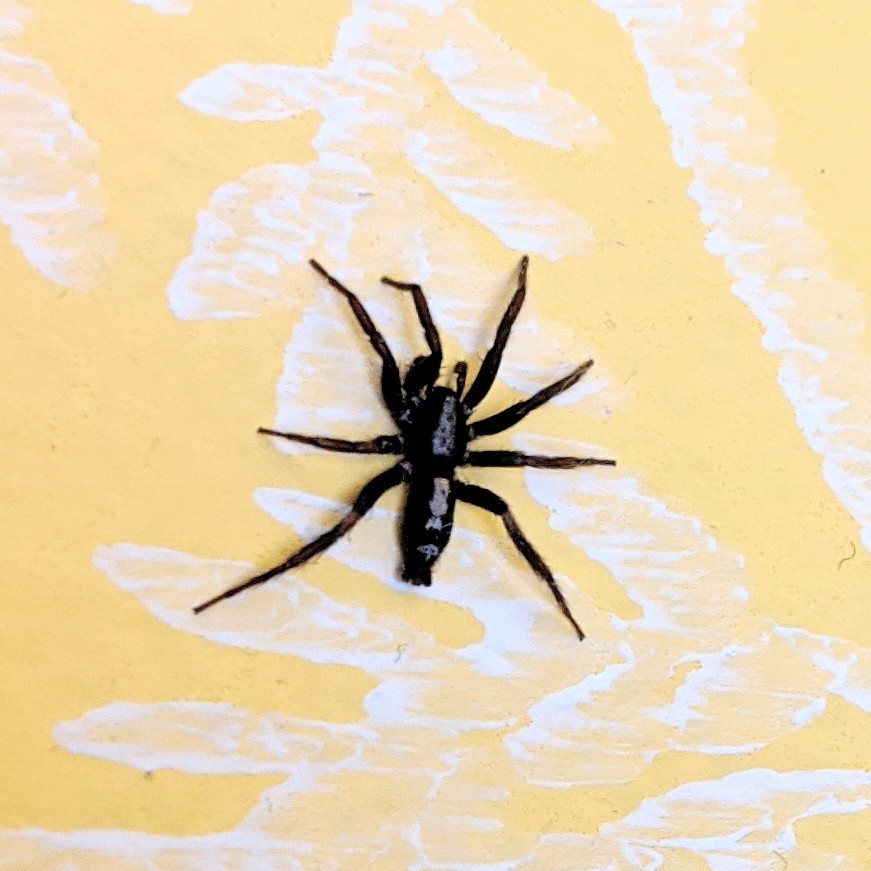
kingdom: Animalia
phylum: Arthropoda
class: Arachnida
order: Araneae
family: Gnaphosidae
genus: Herpyllus
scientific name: Herpyllus ecclesiasticus
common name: Eastern parson spider
